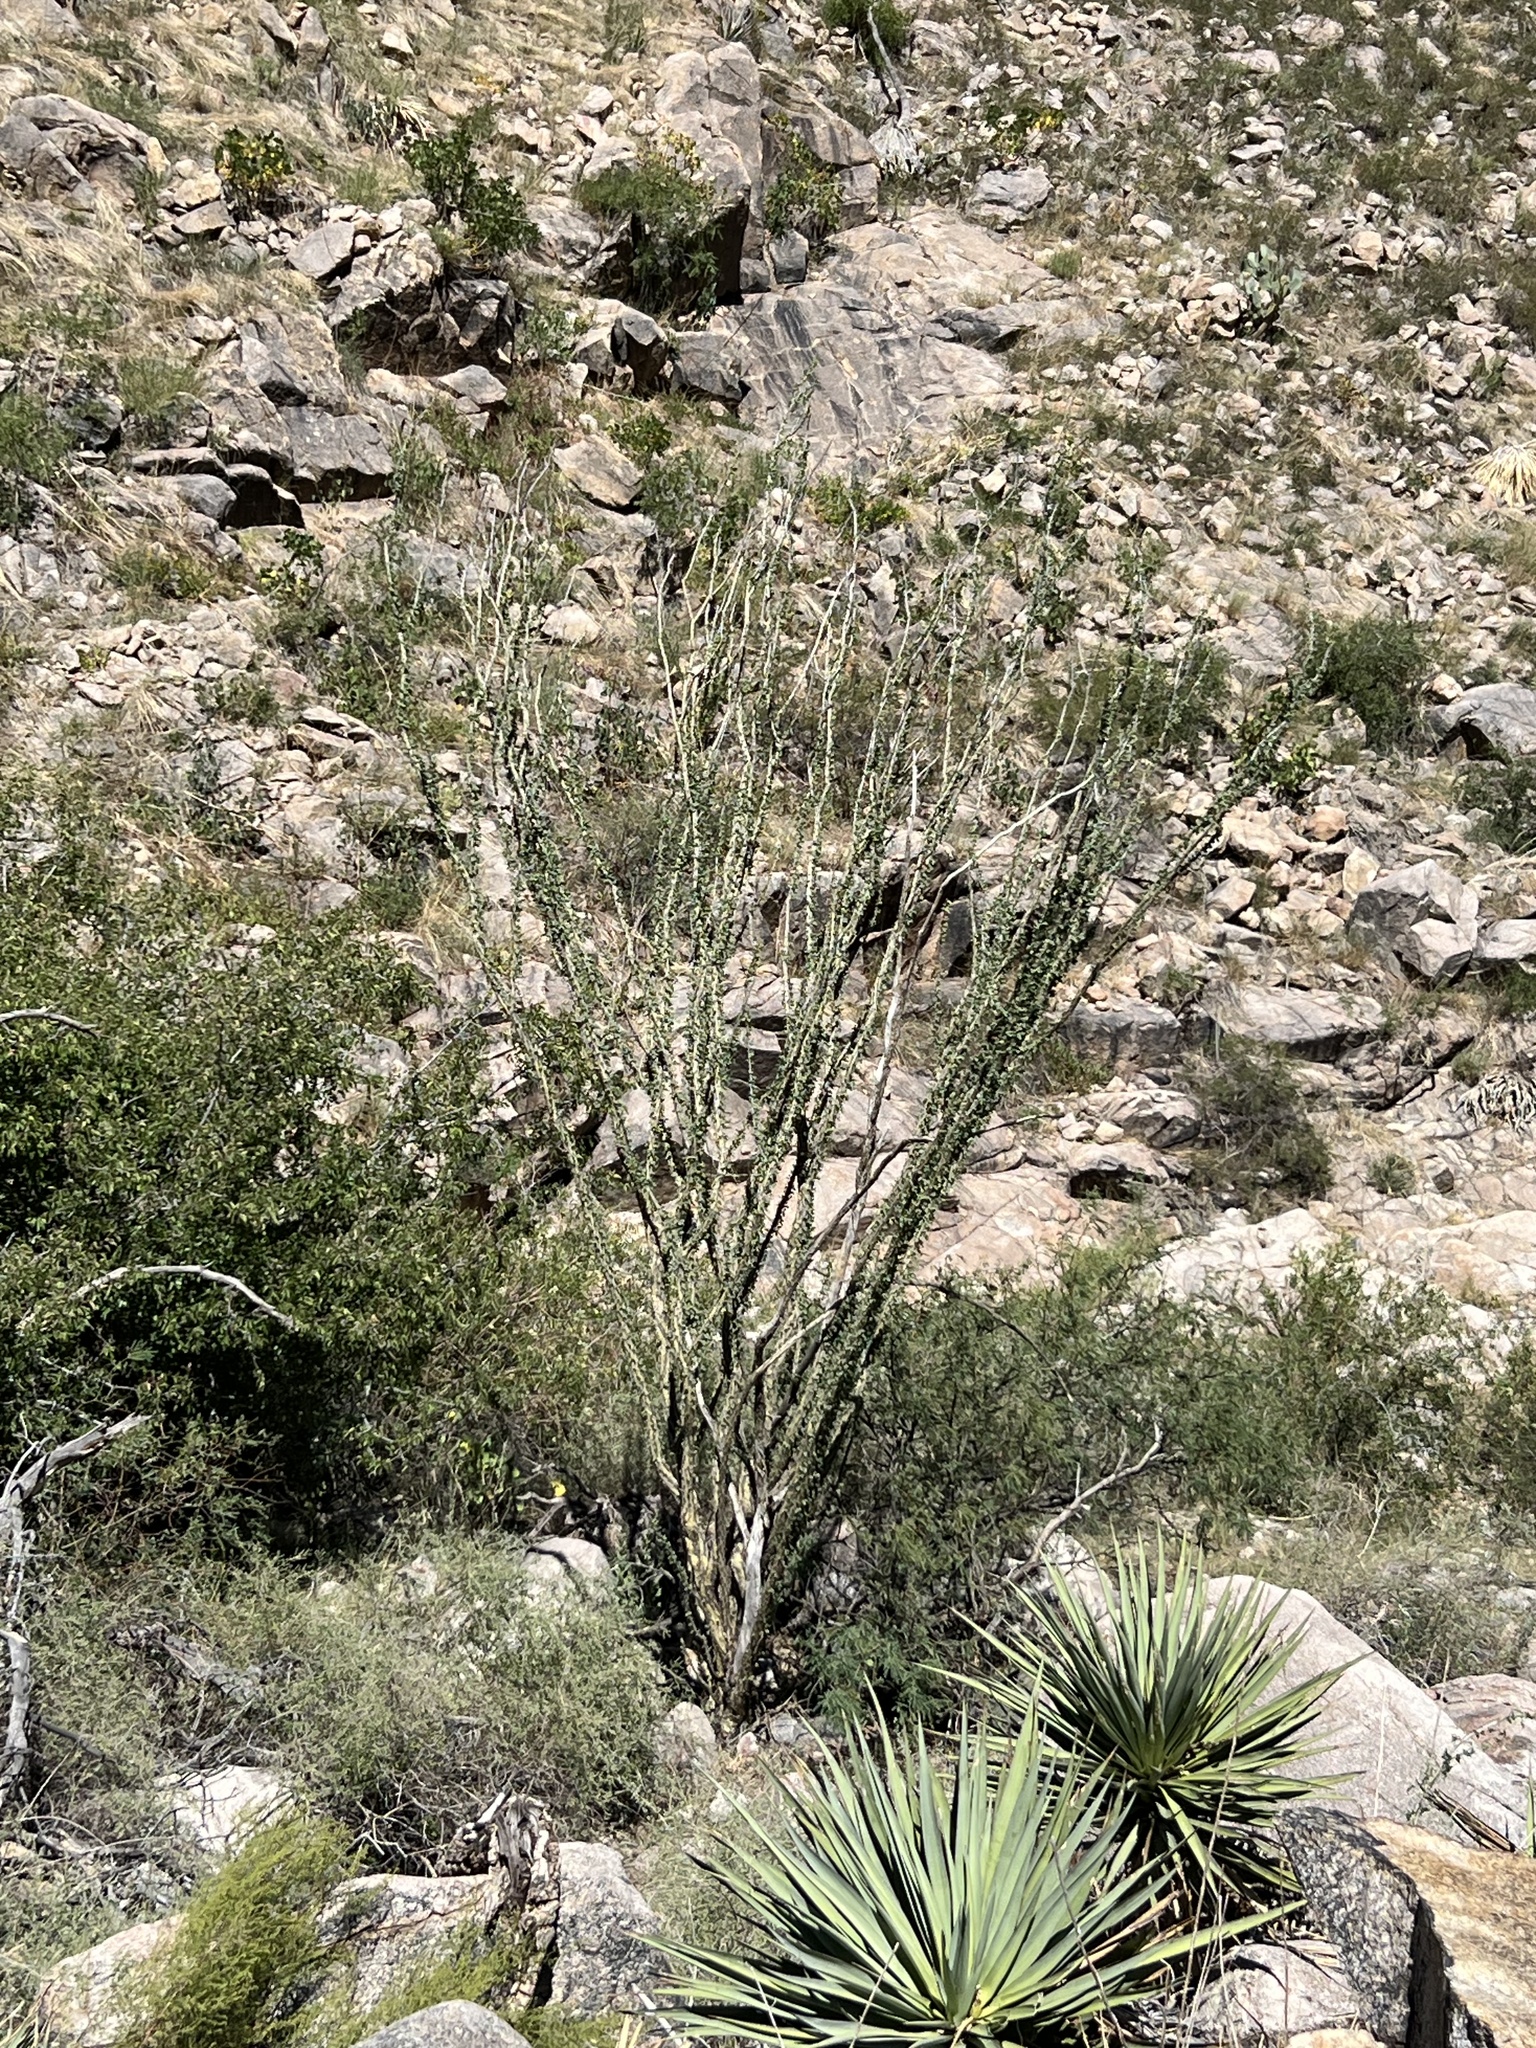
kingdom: Plantae
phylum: Tracheophyta
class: Magnoliopsida
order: Ericales
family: Fouquieriaceae
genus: Fouquieria
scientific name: Fouquieria splendens
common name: Vine-cactus
